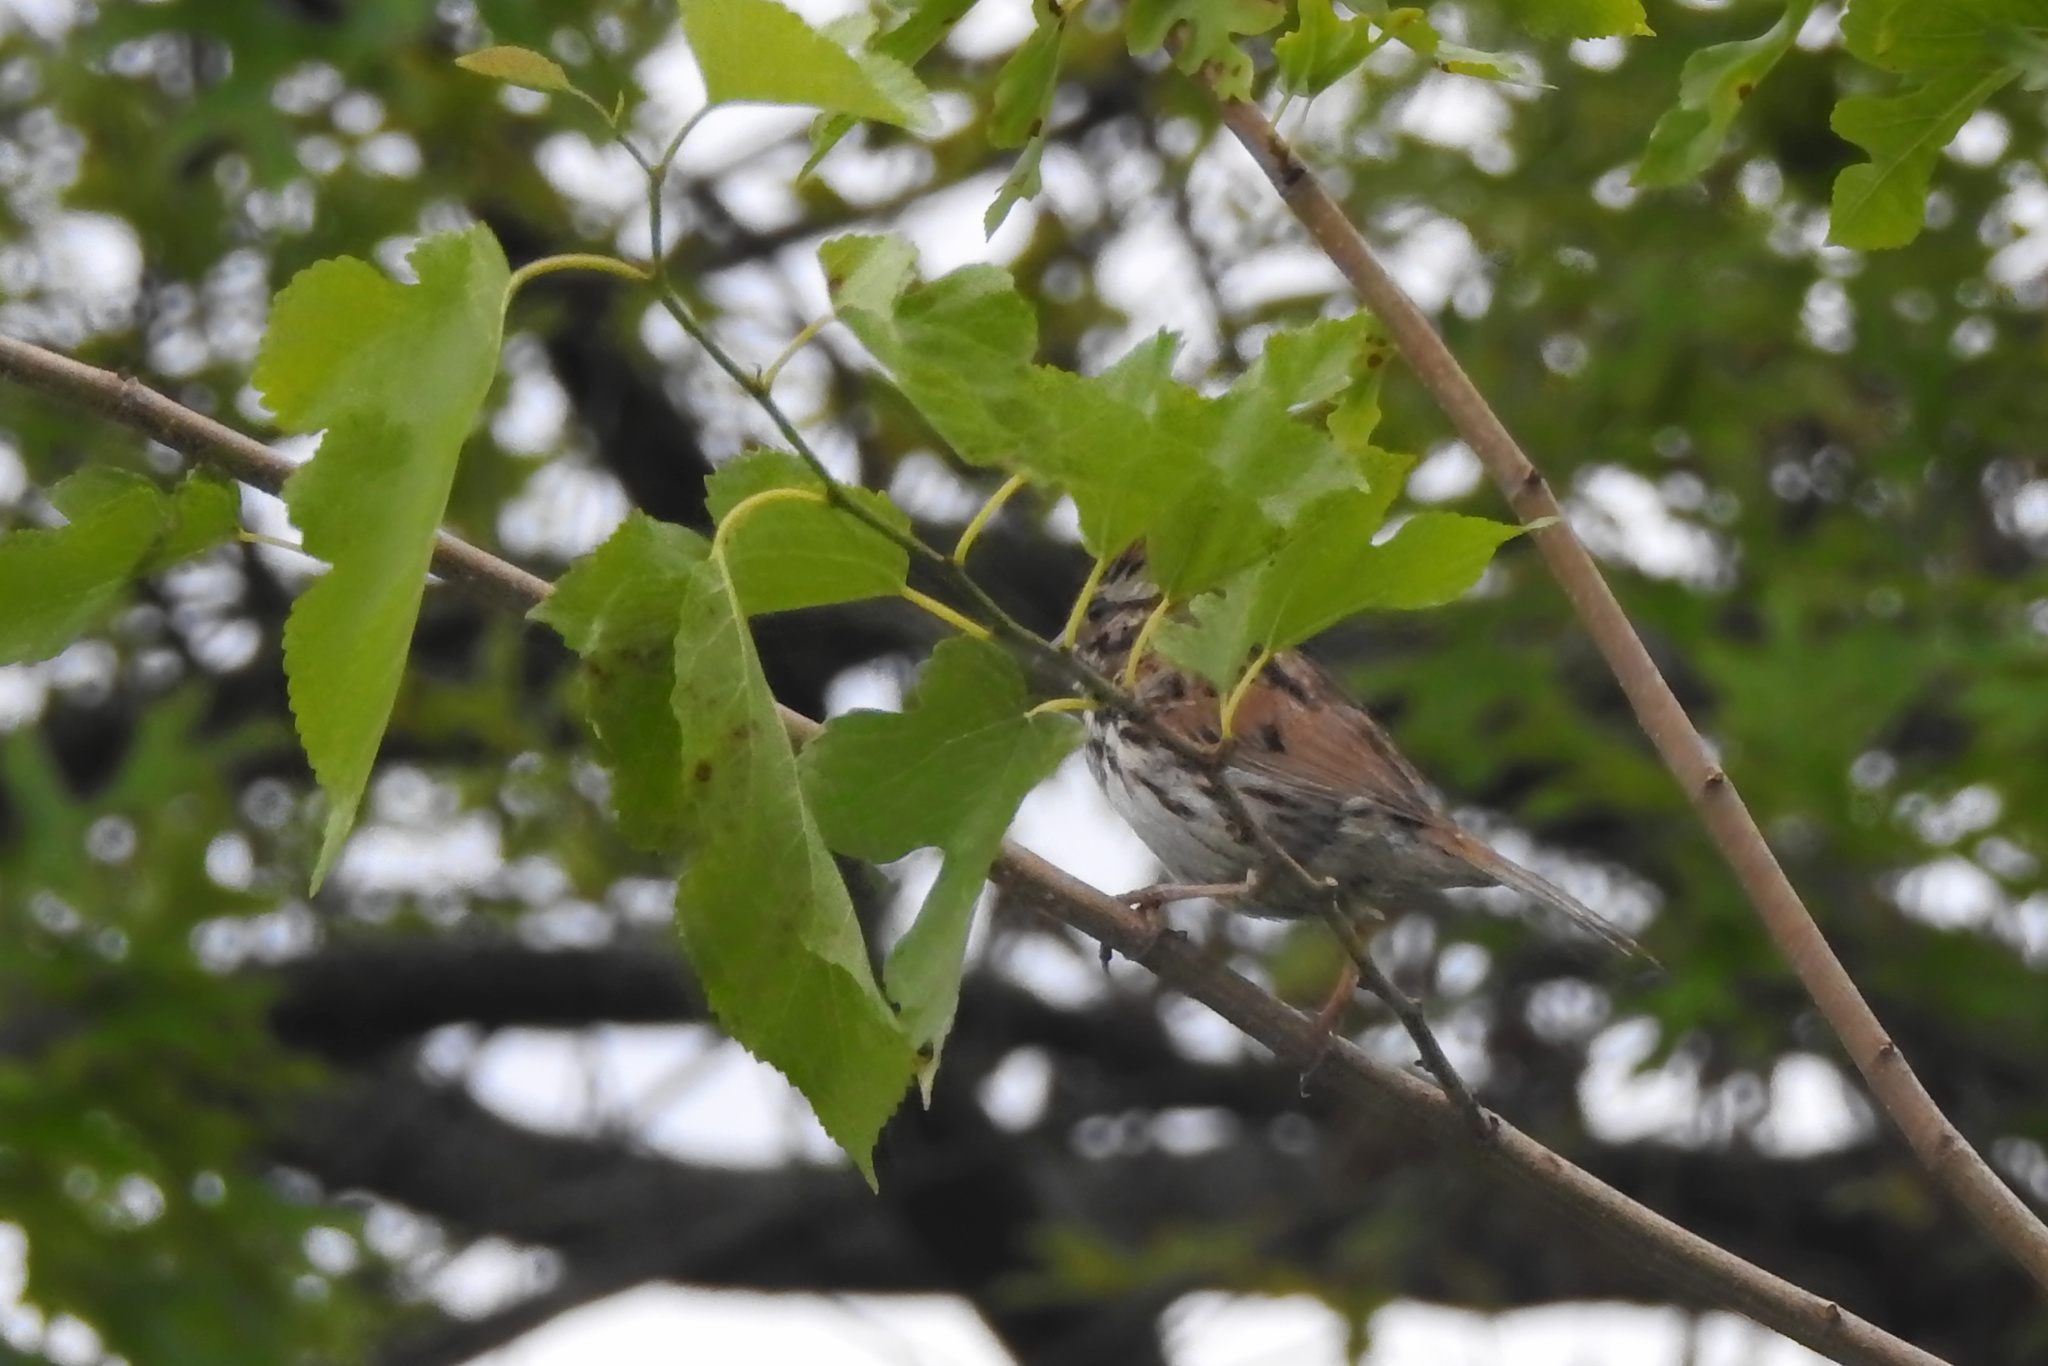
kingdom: Animalia
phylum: Chordata
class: Aves
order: Passeriformes
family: Passerellidae
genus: Melospiza
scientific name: Melospiza melodia
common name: Song sparrow
